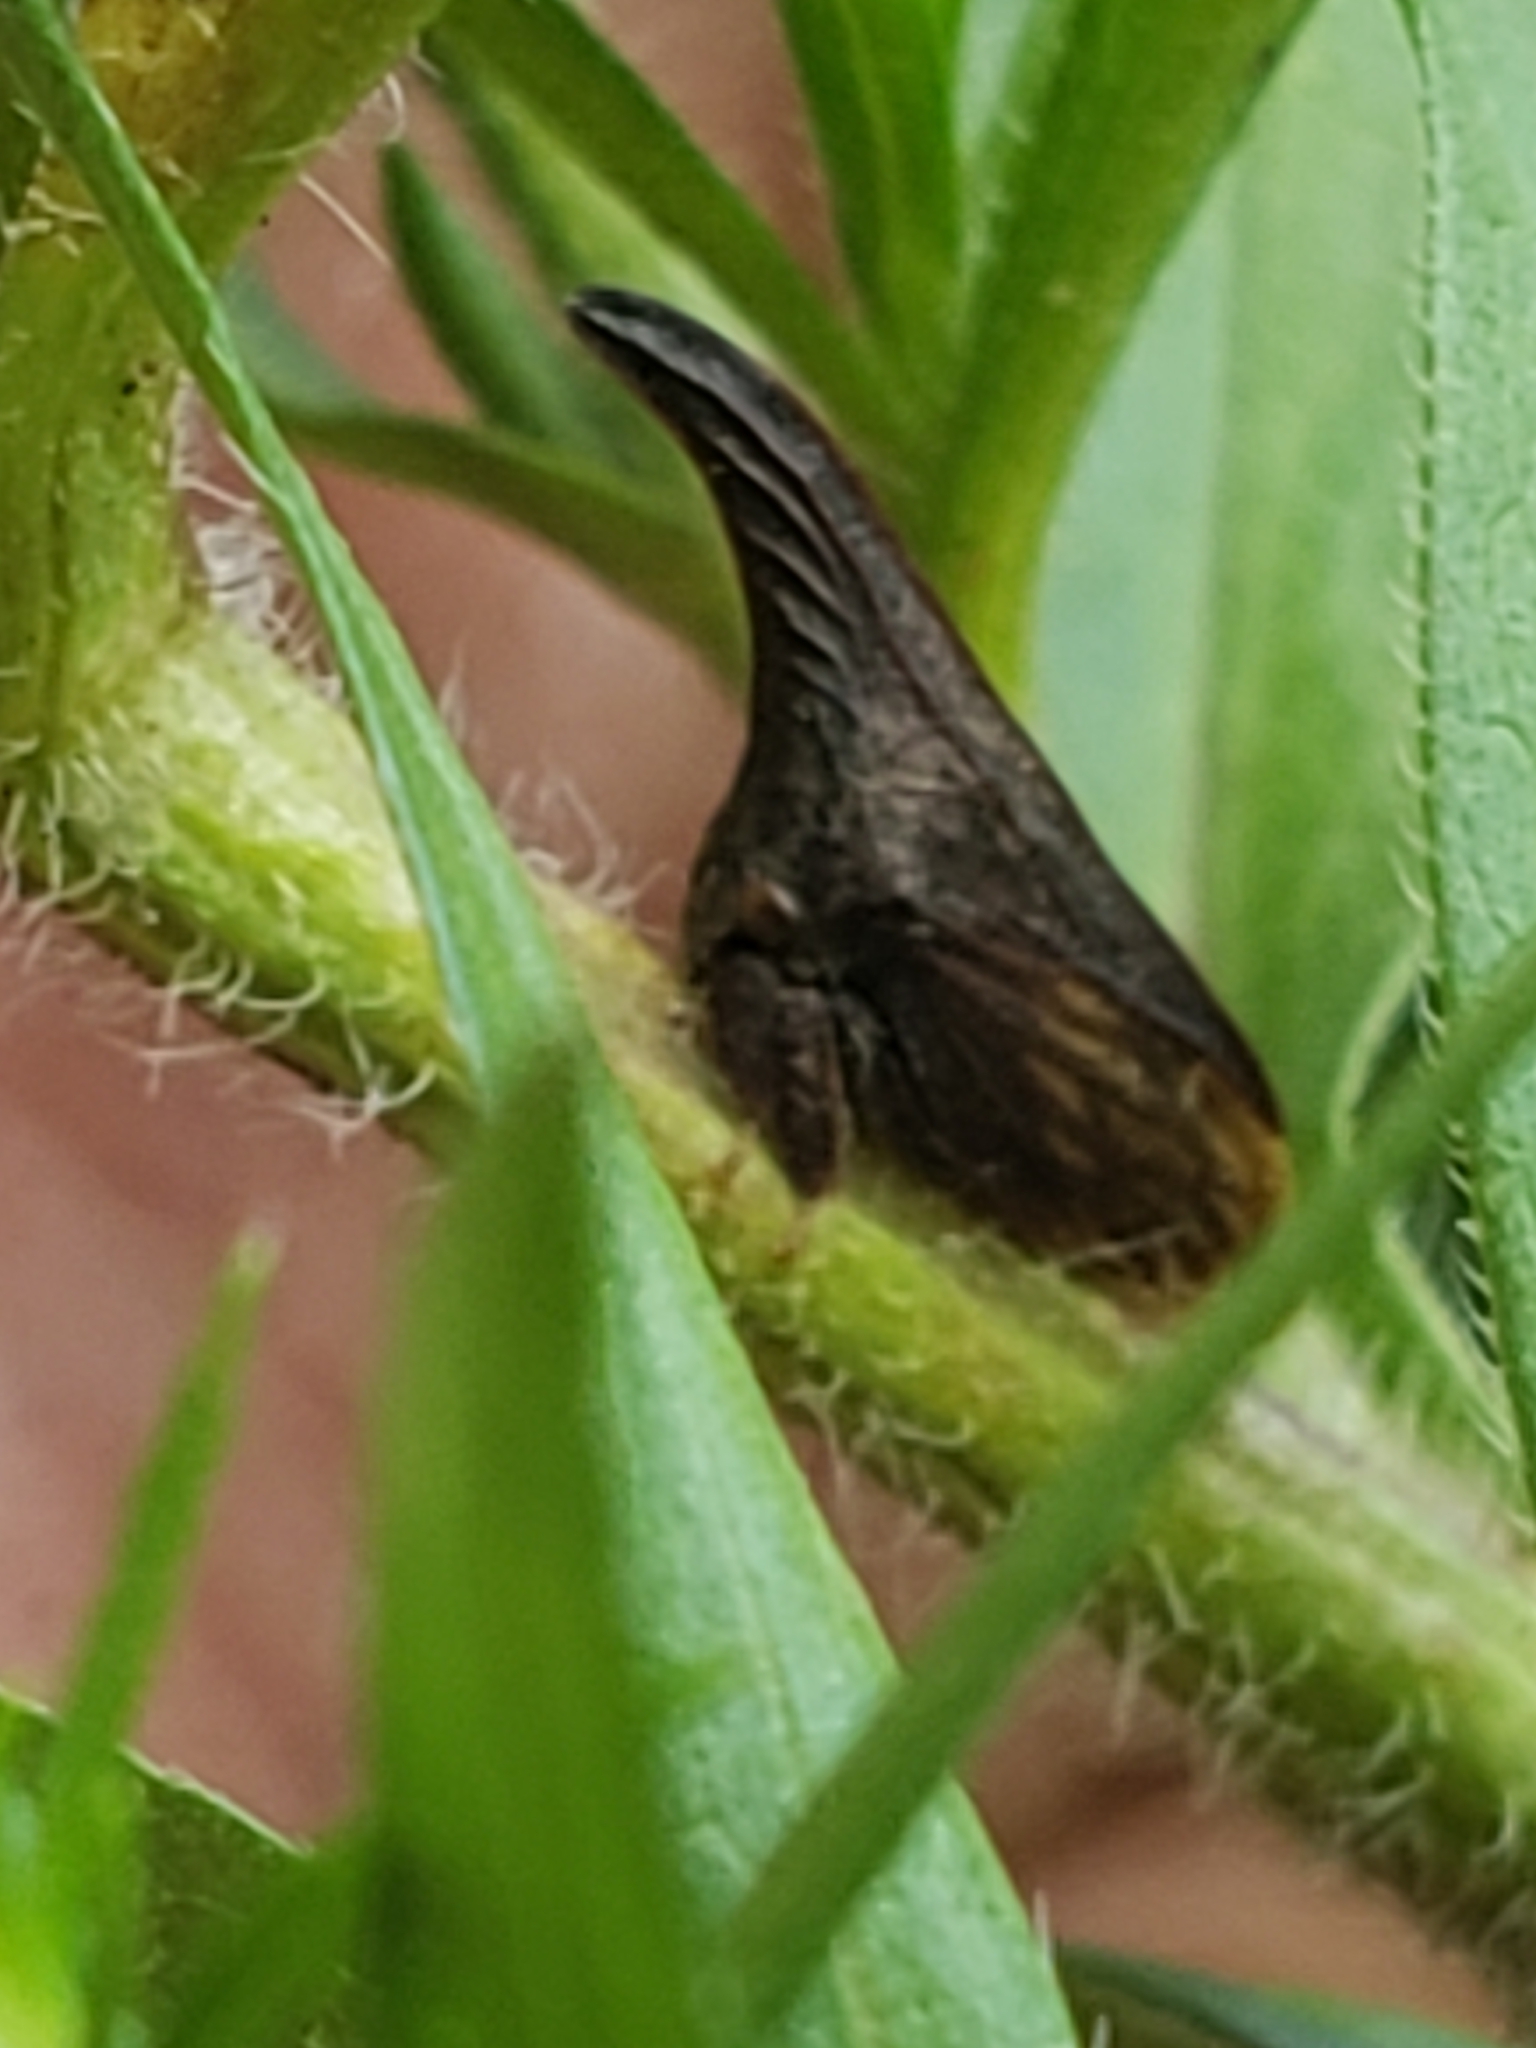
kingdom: Animalia
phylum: Arthropoda
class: Insecta
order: Hemiptera
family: Membracidae
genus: Enchenopa
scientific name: Enchenopa latipes
